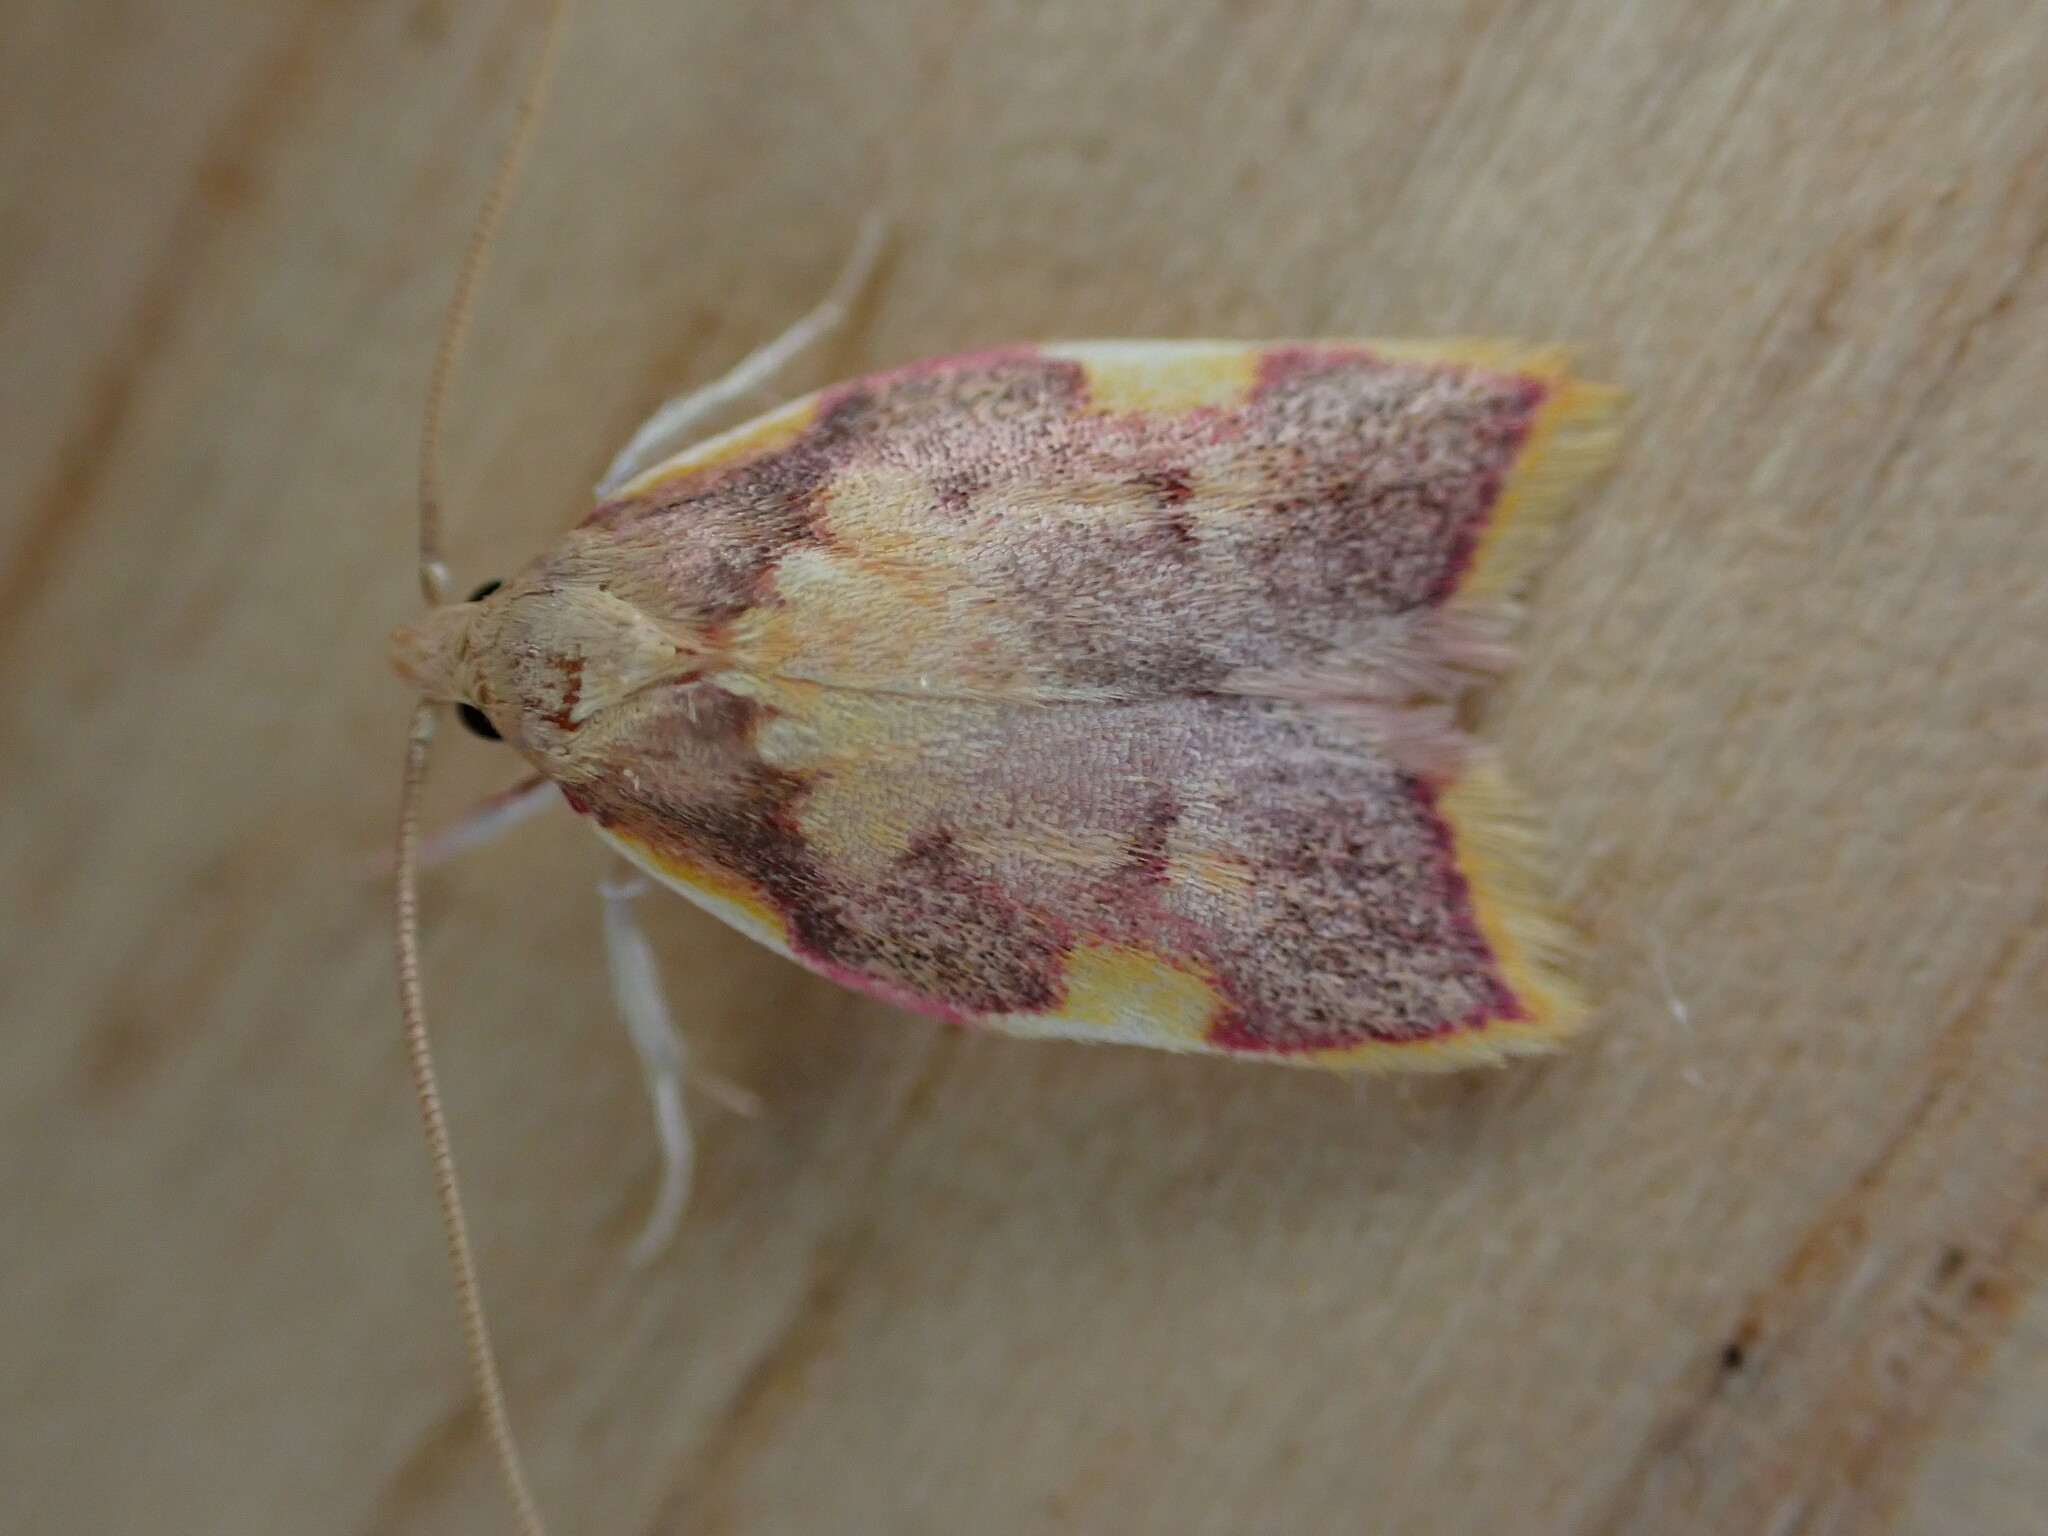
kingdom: Animalia
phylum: Arthropoda
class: Insecta
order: Lepidoptera
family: Peleopodidae
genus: Carcina
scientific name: Carcina quercana
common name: Moth
